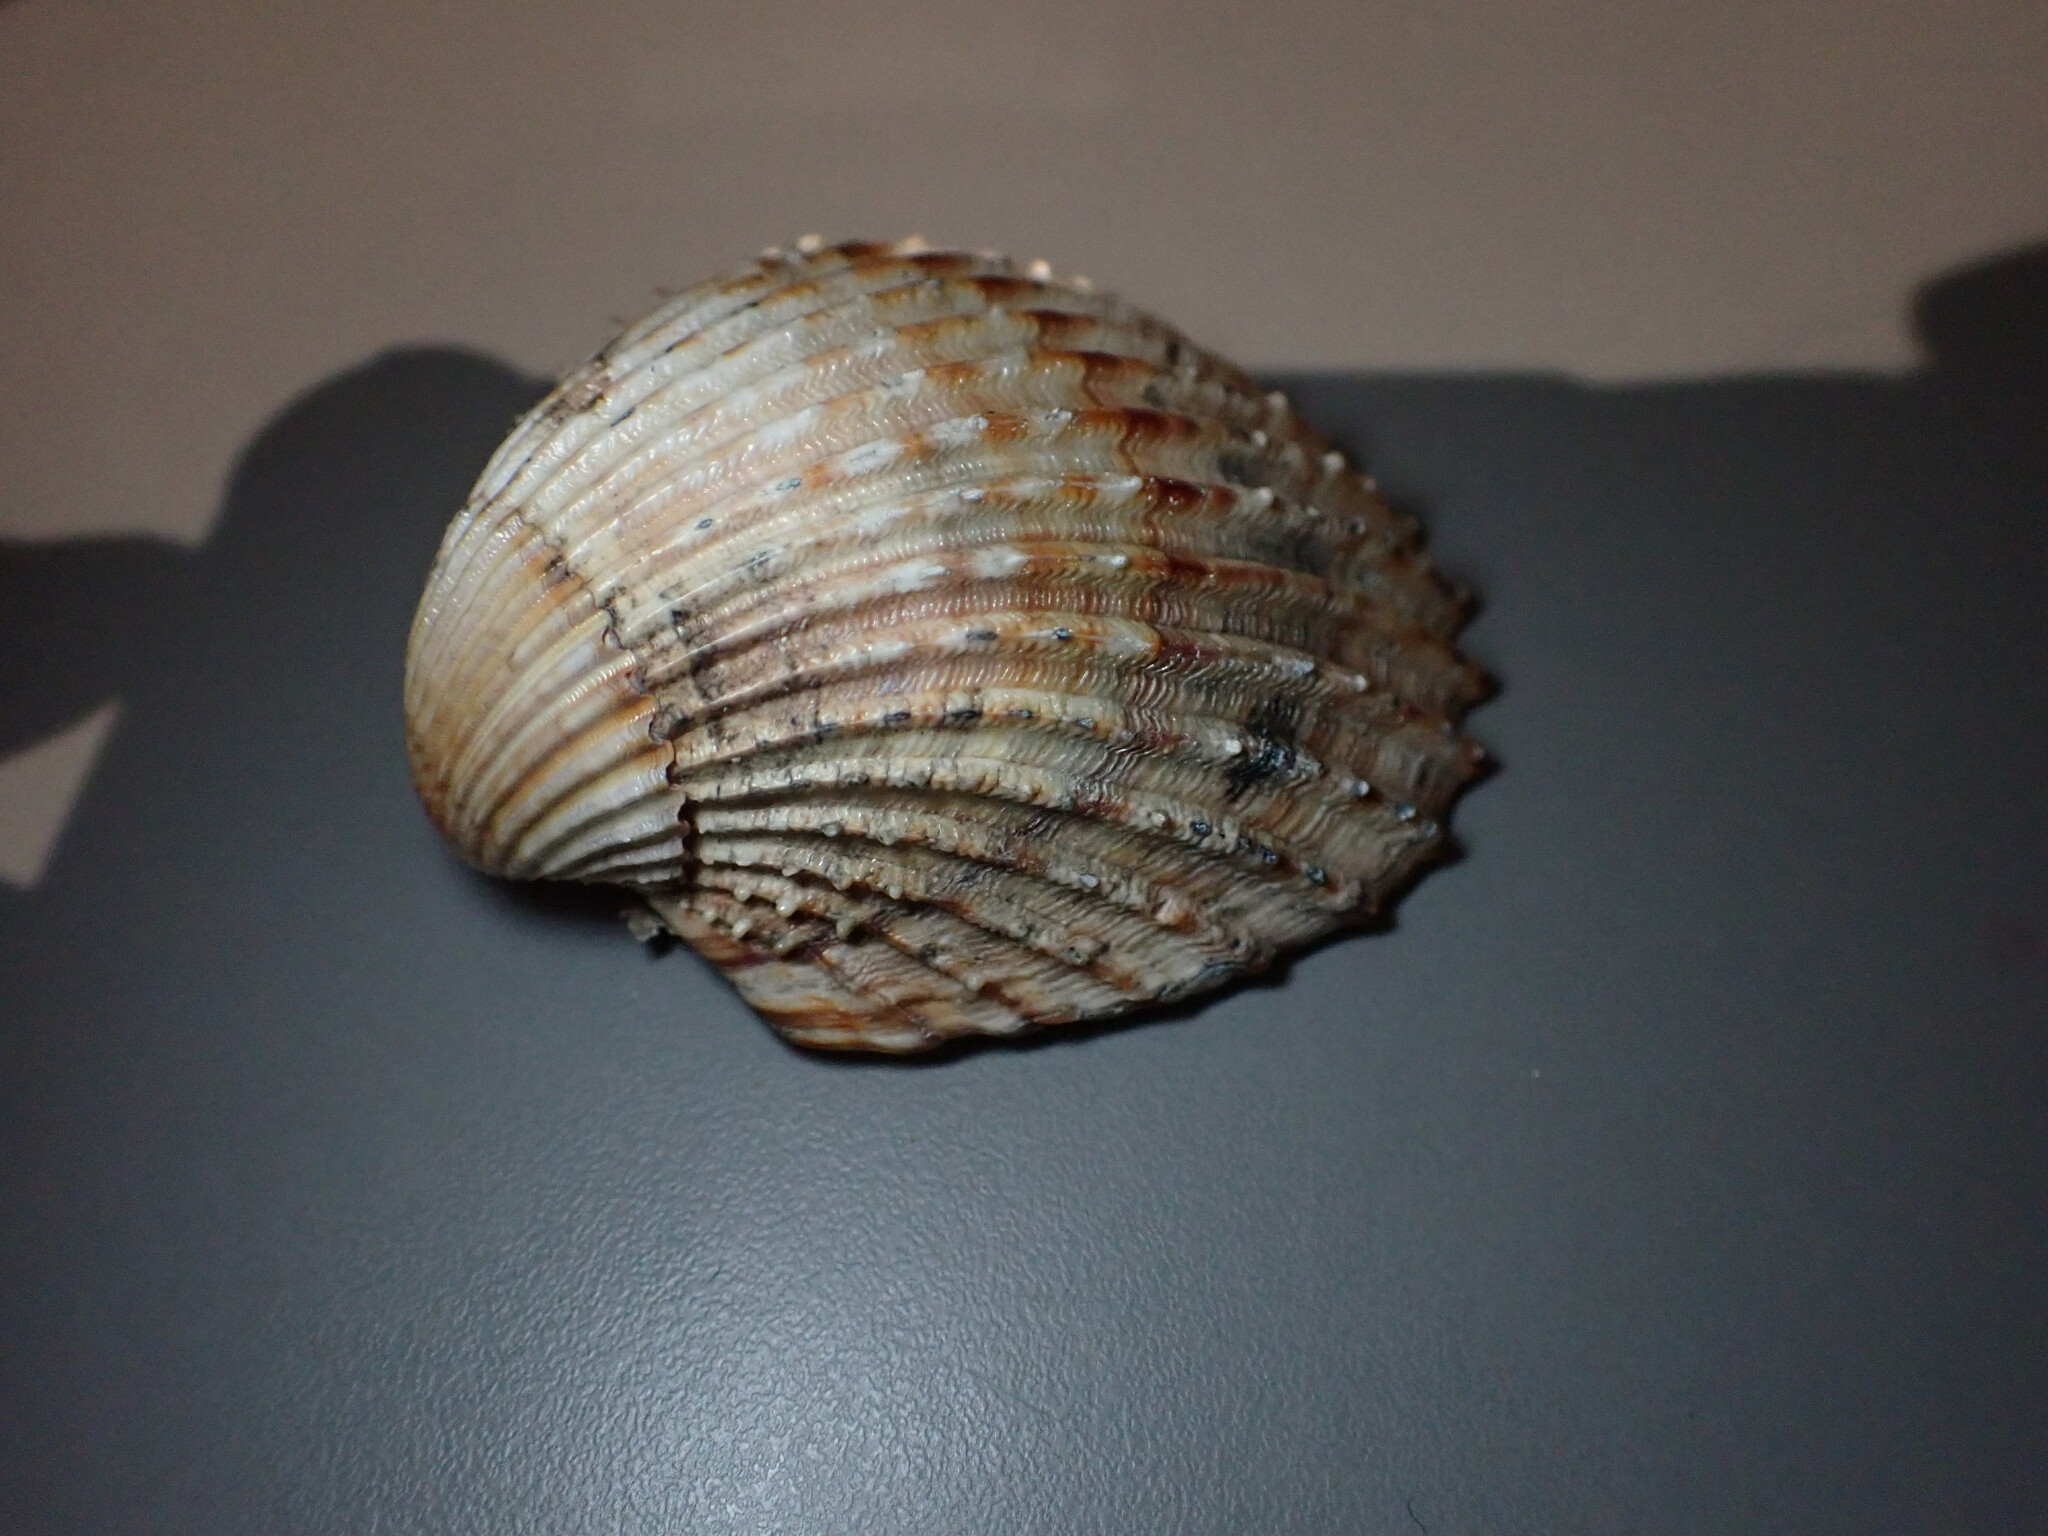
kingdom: Animalia
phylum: Mollusca
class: Bivalvia
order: Cardiida
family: Cardiidae
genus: Acanthocardia
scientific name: Acanthocardia echinata
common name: Prickly cockle
